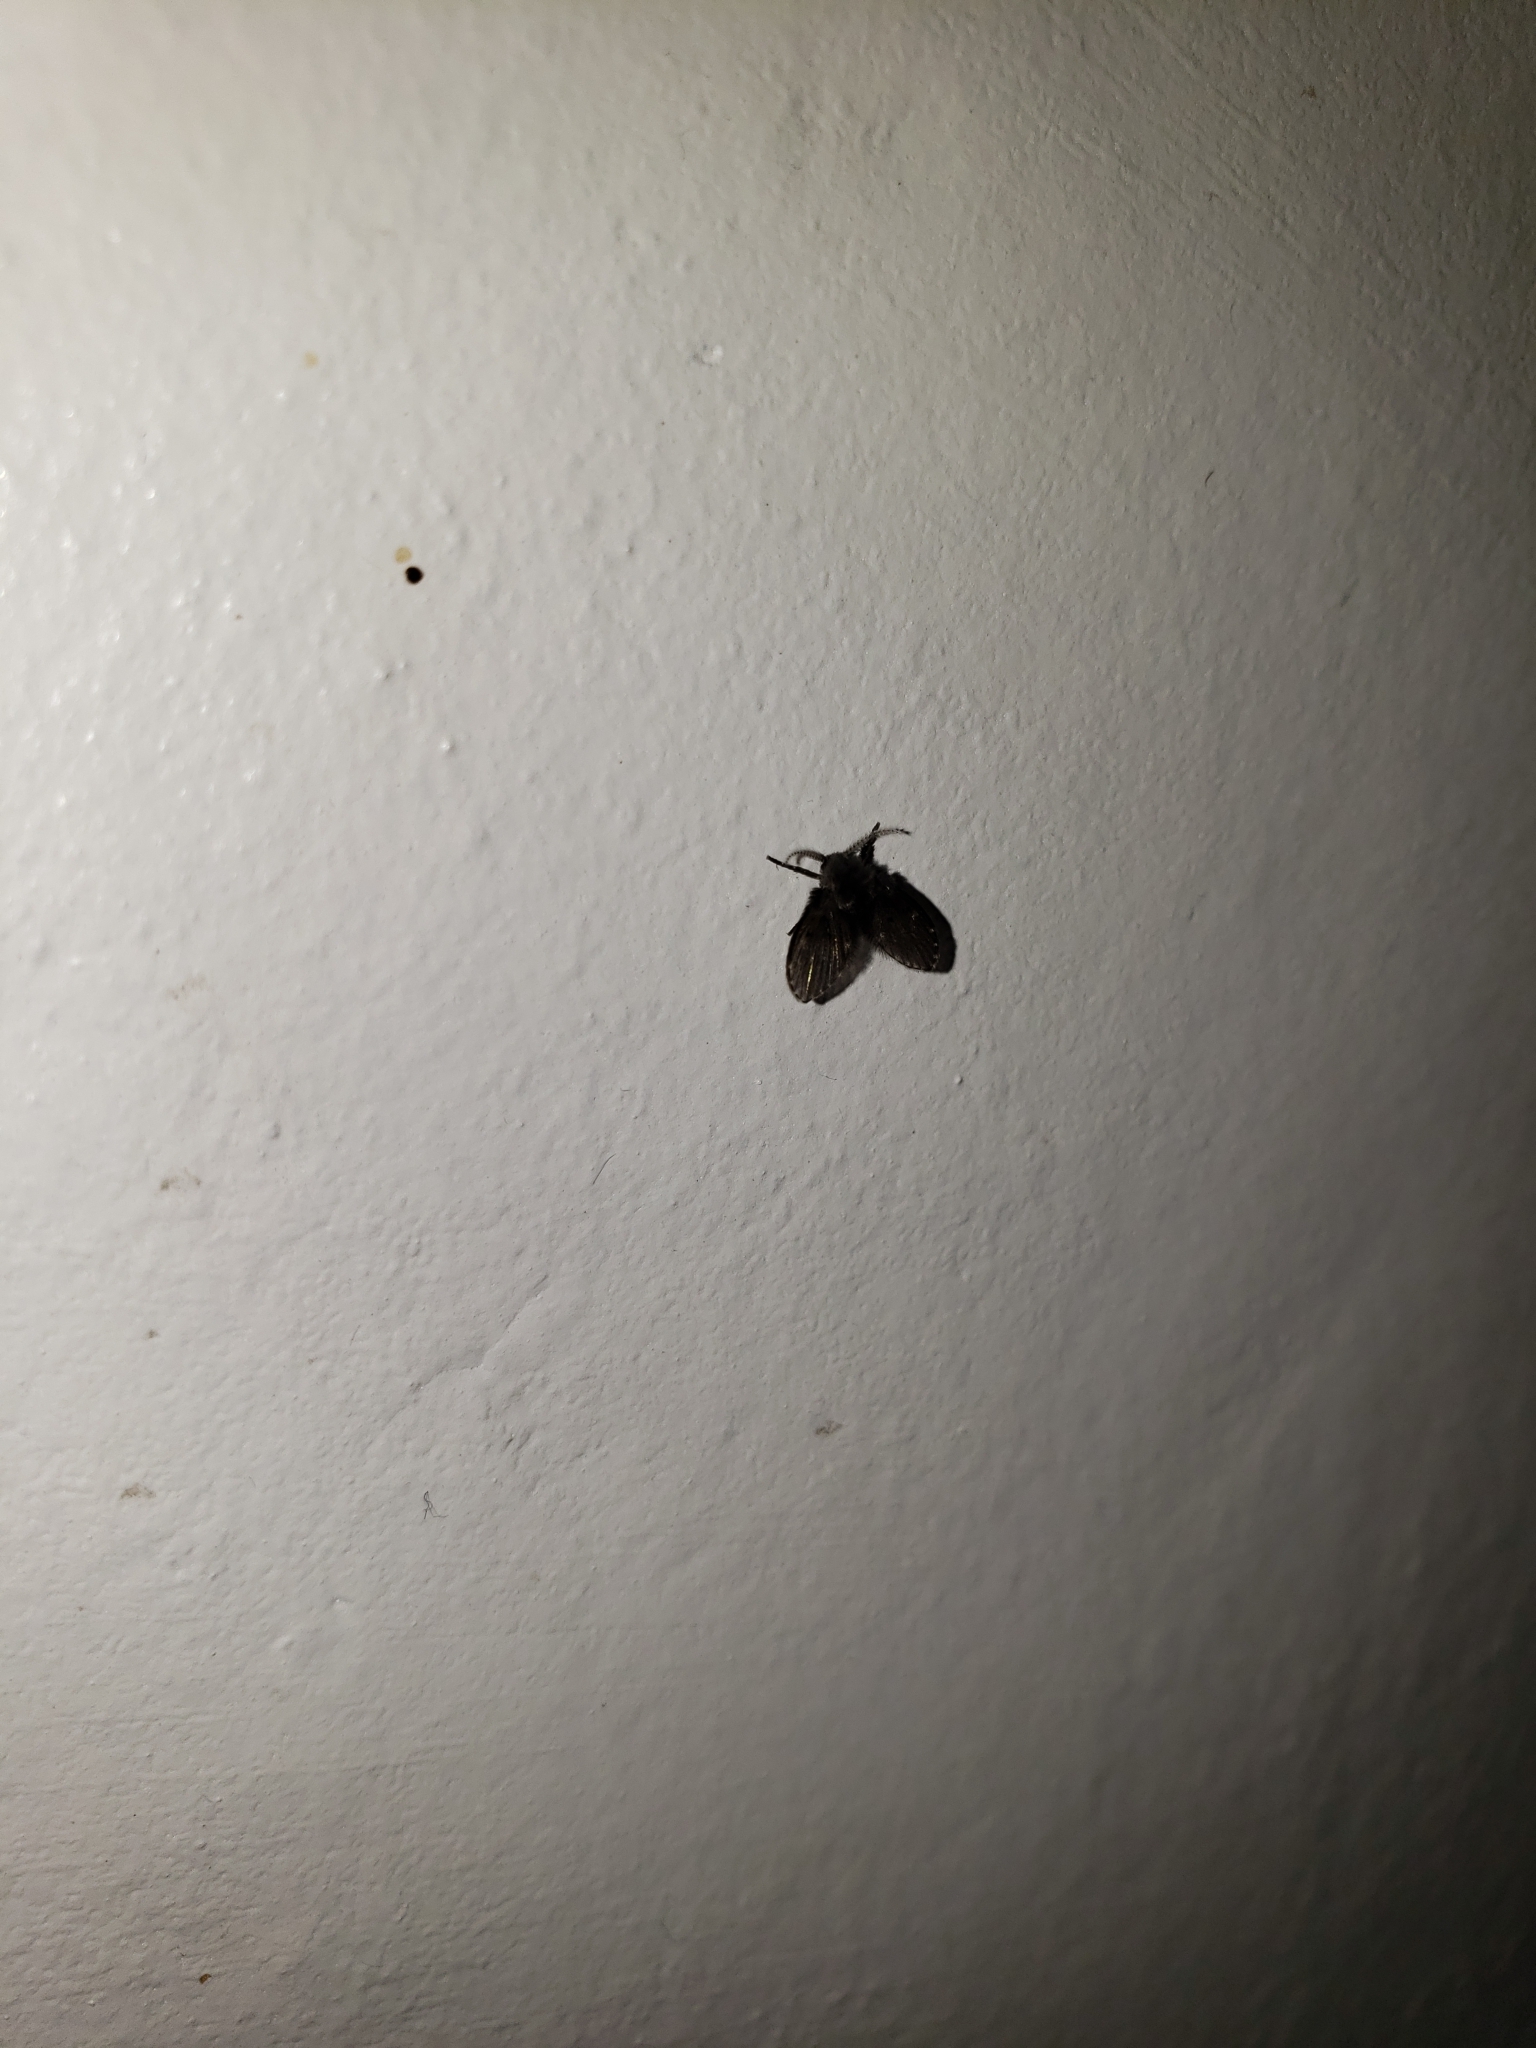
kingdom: Animalia
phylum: Arthropoda
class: Insecta
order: Diptera
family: Psychodidae
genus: Clogmia
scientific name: Clogmia albipunctatus
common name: White-spotted moth fly
